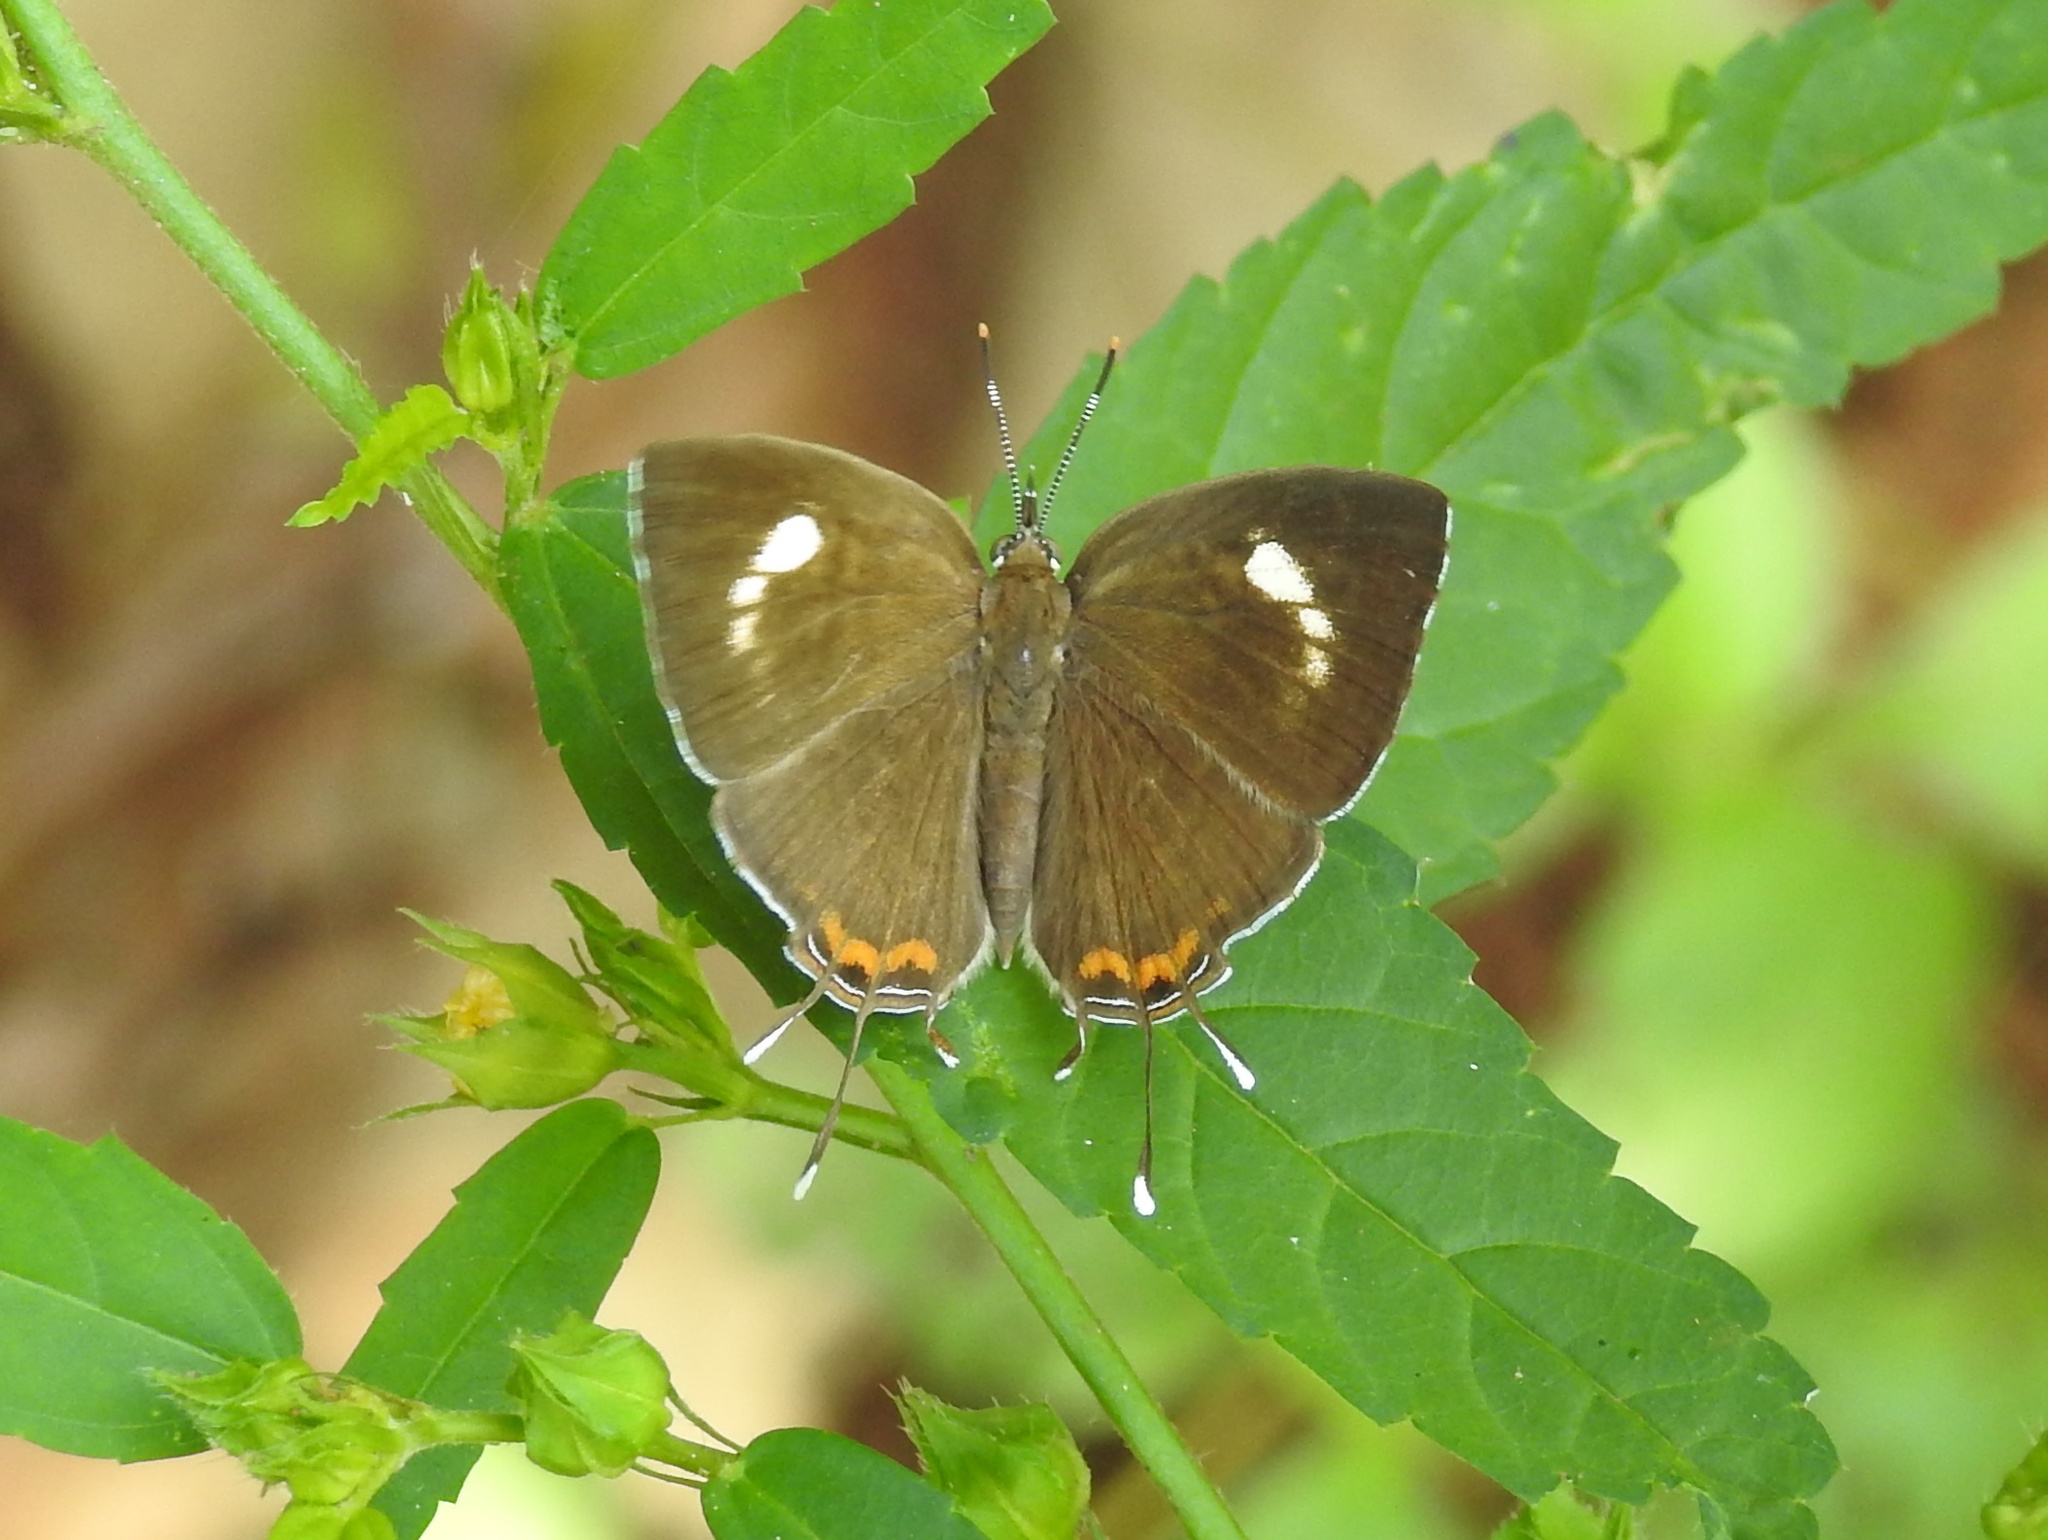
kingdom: Animalia
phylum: Arthropoda
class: Insecta
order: Lepidoptera
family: Lycaenidae
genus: Rathinda
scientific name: Rathinda amor
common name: Monkey puzzle
